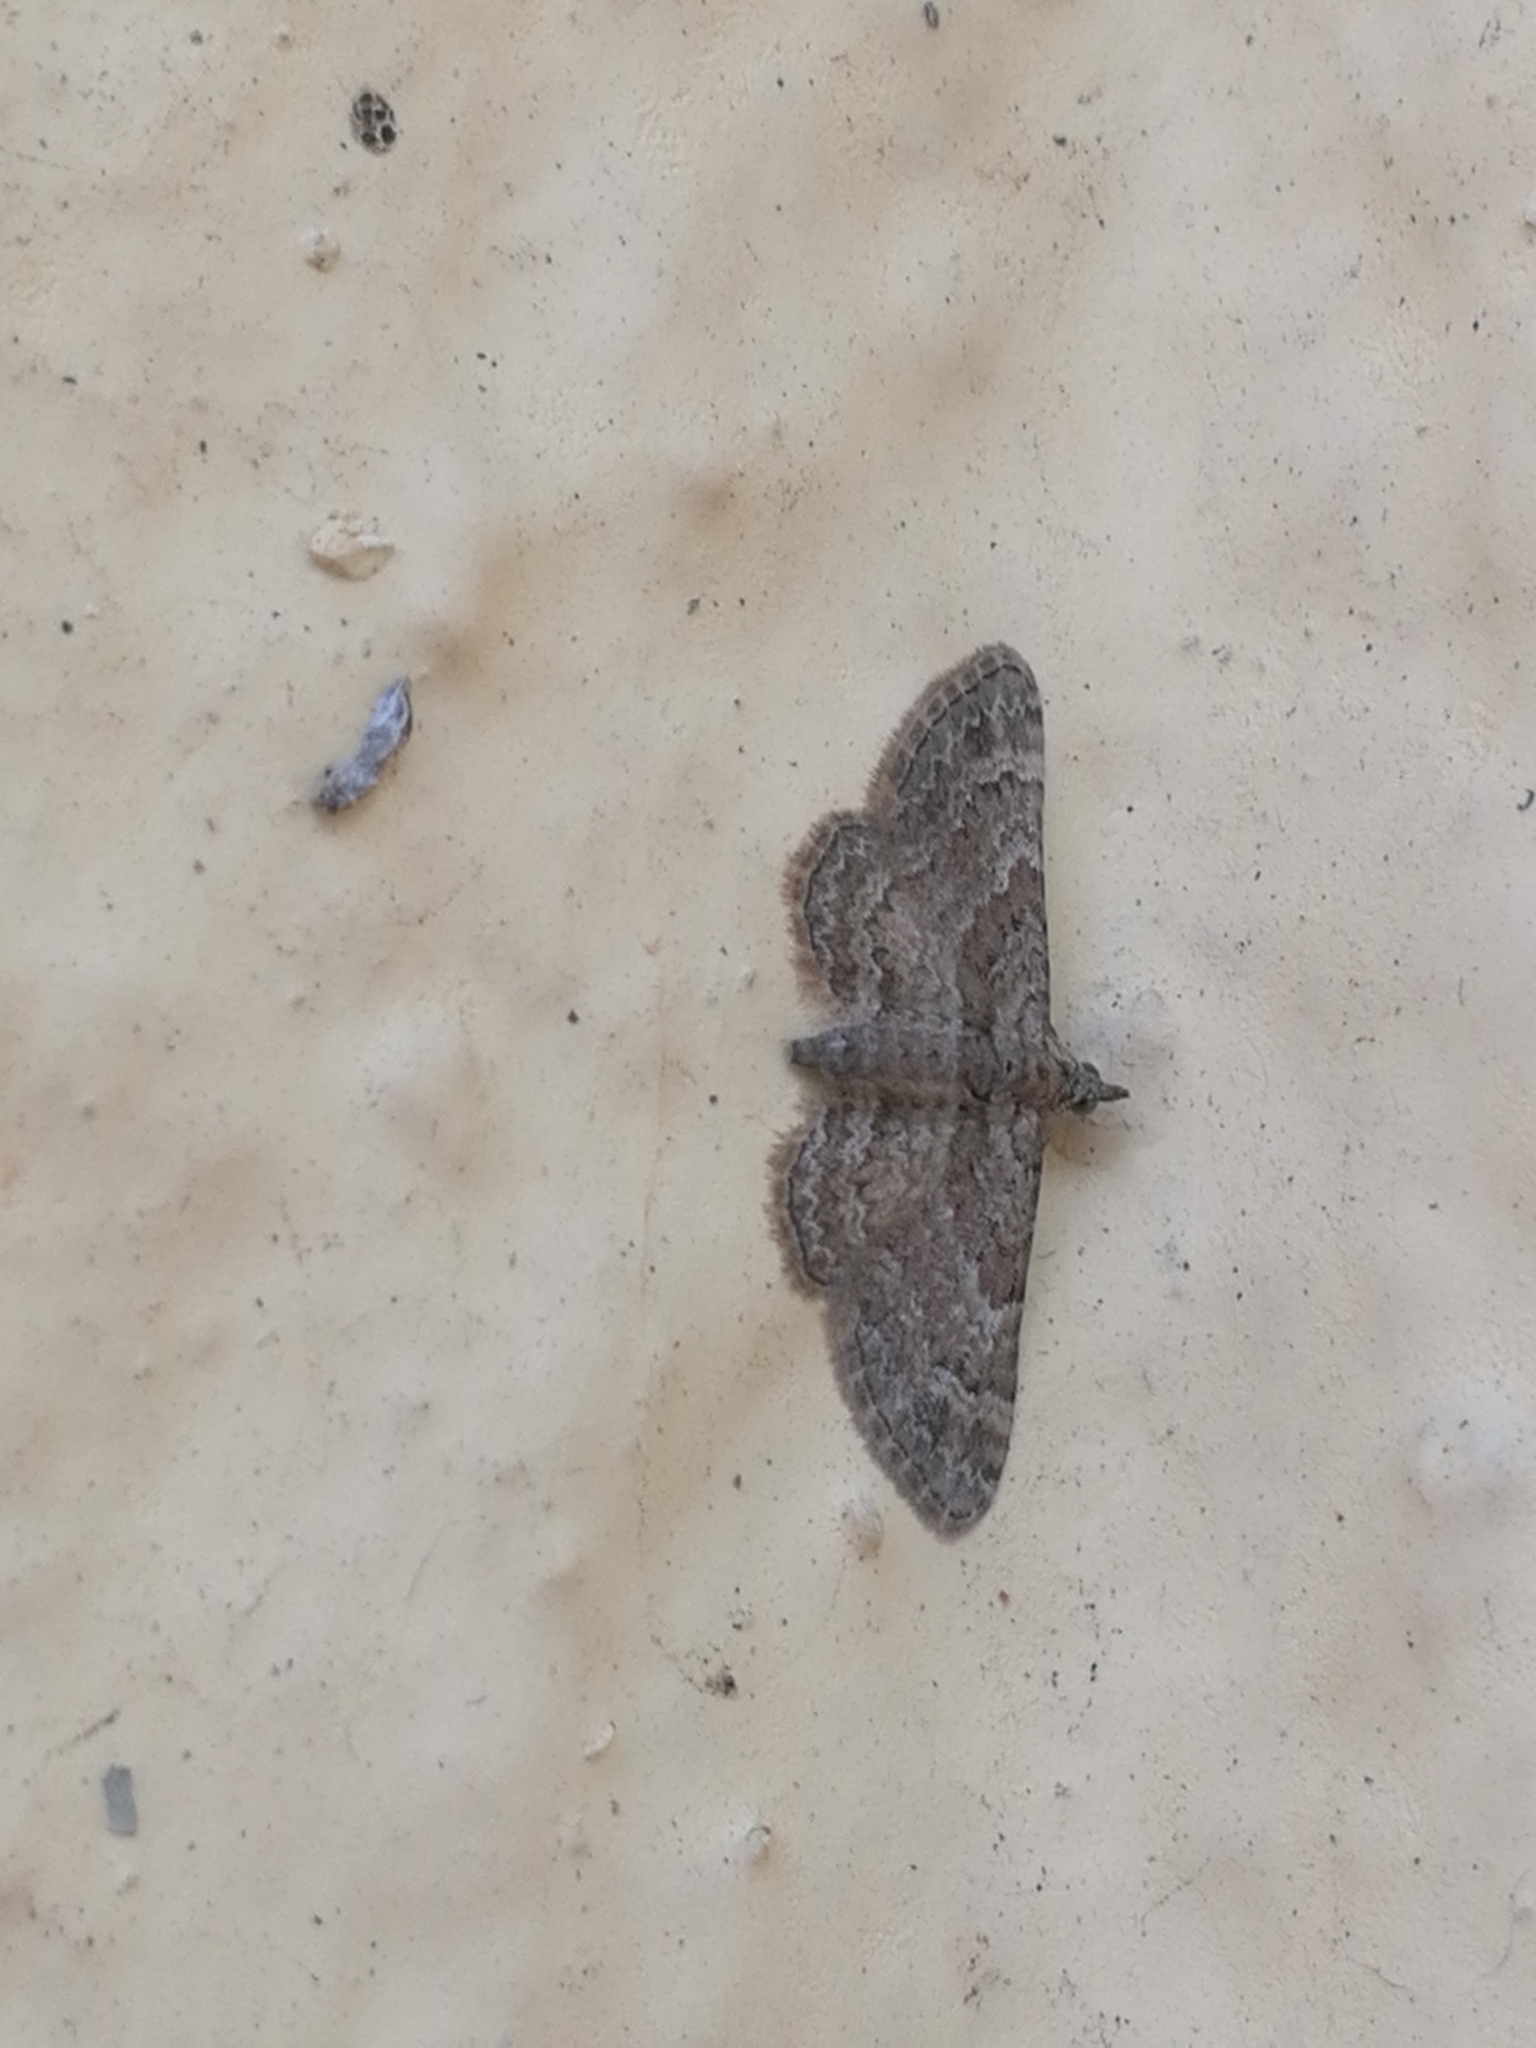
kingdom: Animalia
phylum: Arthropoda
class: Insecta
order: Lepidoptera
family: Geometridae
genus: Gymnoscelis
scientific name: Gymnoscelis rufifasciata
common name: Double-striped pug
